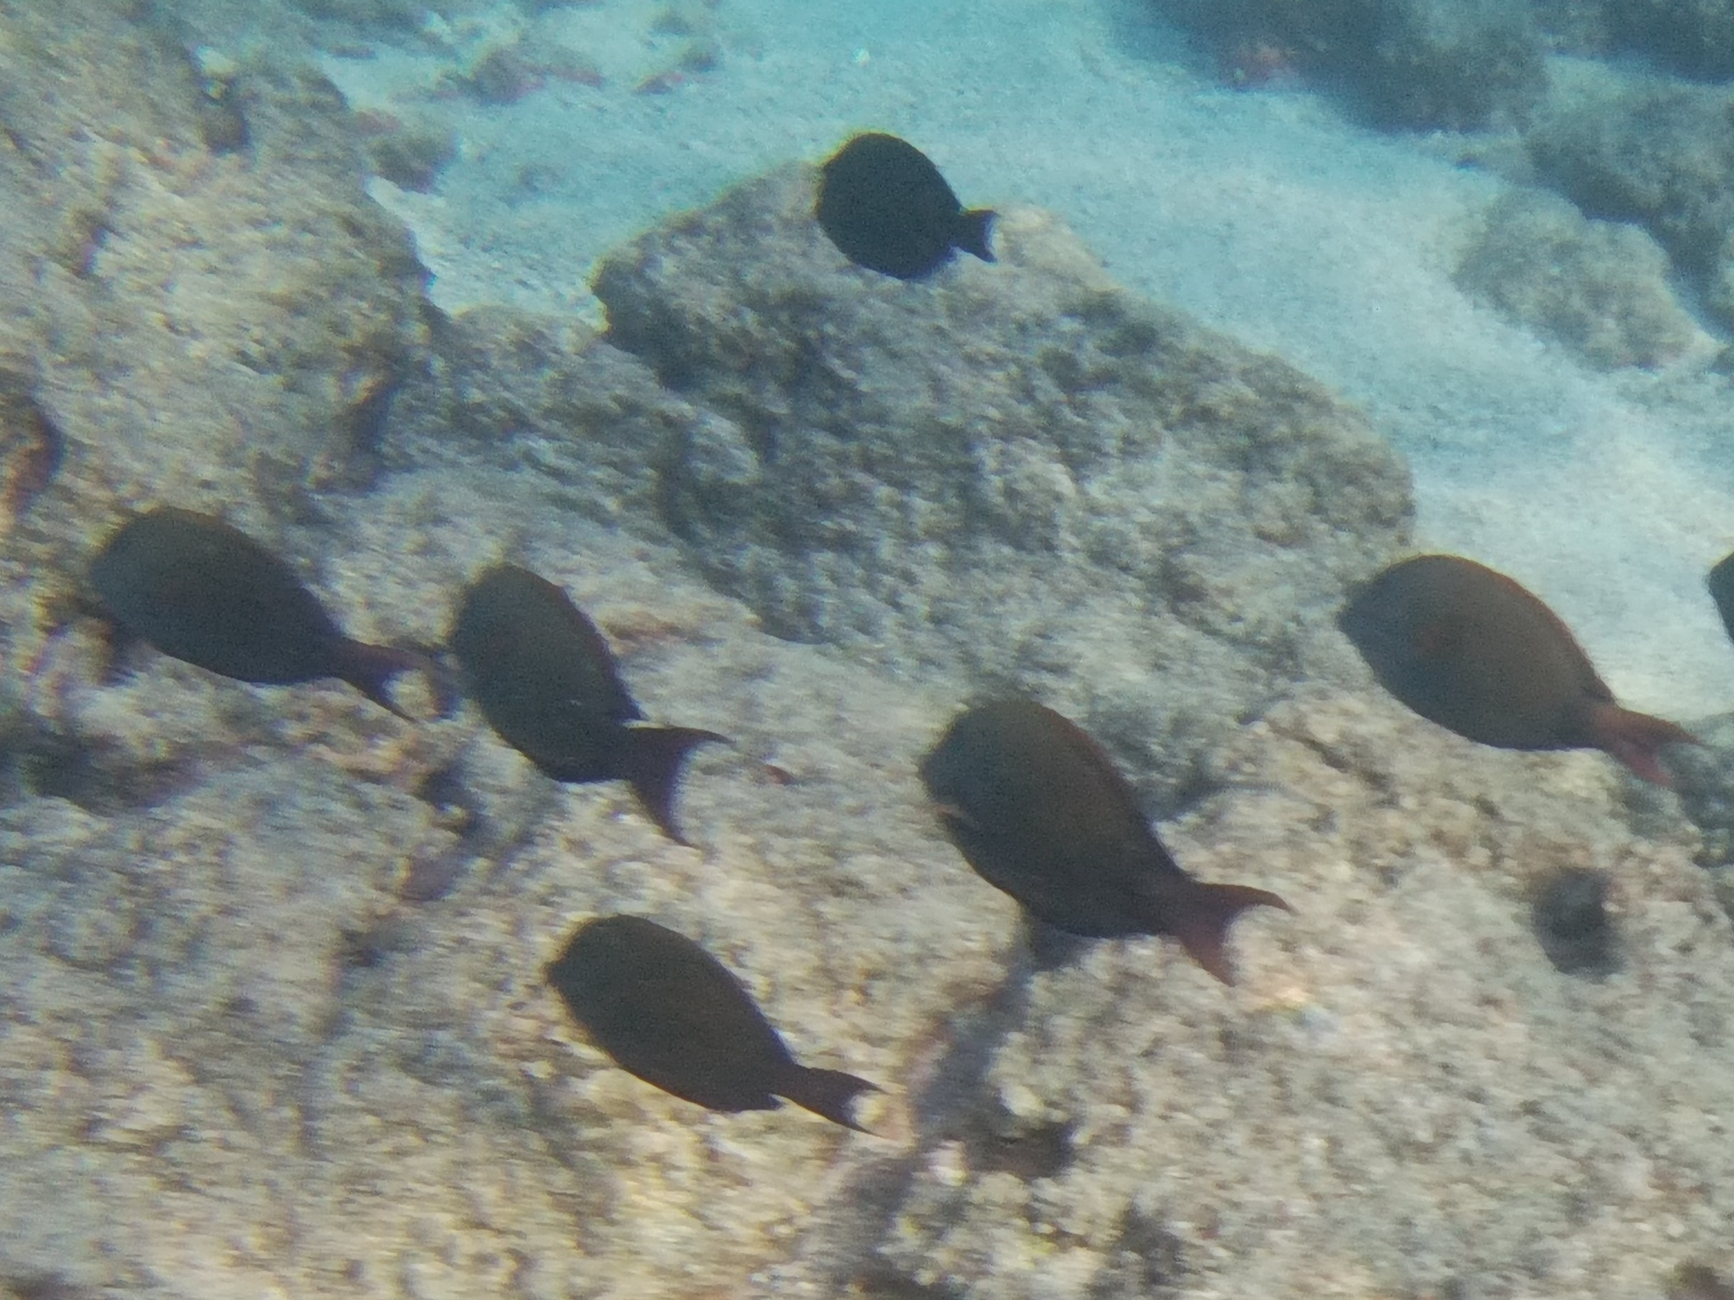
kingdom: Animalia
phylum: Chordata
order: Perciformes
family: Acanthuridae
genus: Acanthurus
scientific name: Acanthurus nigrofuscus
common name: Blackspot surgeonfish
